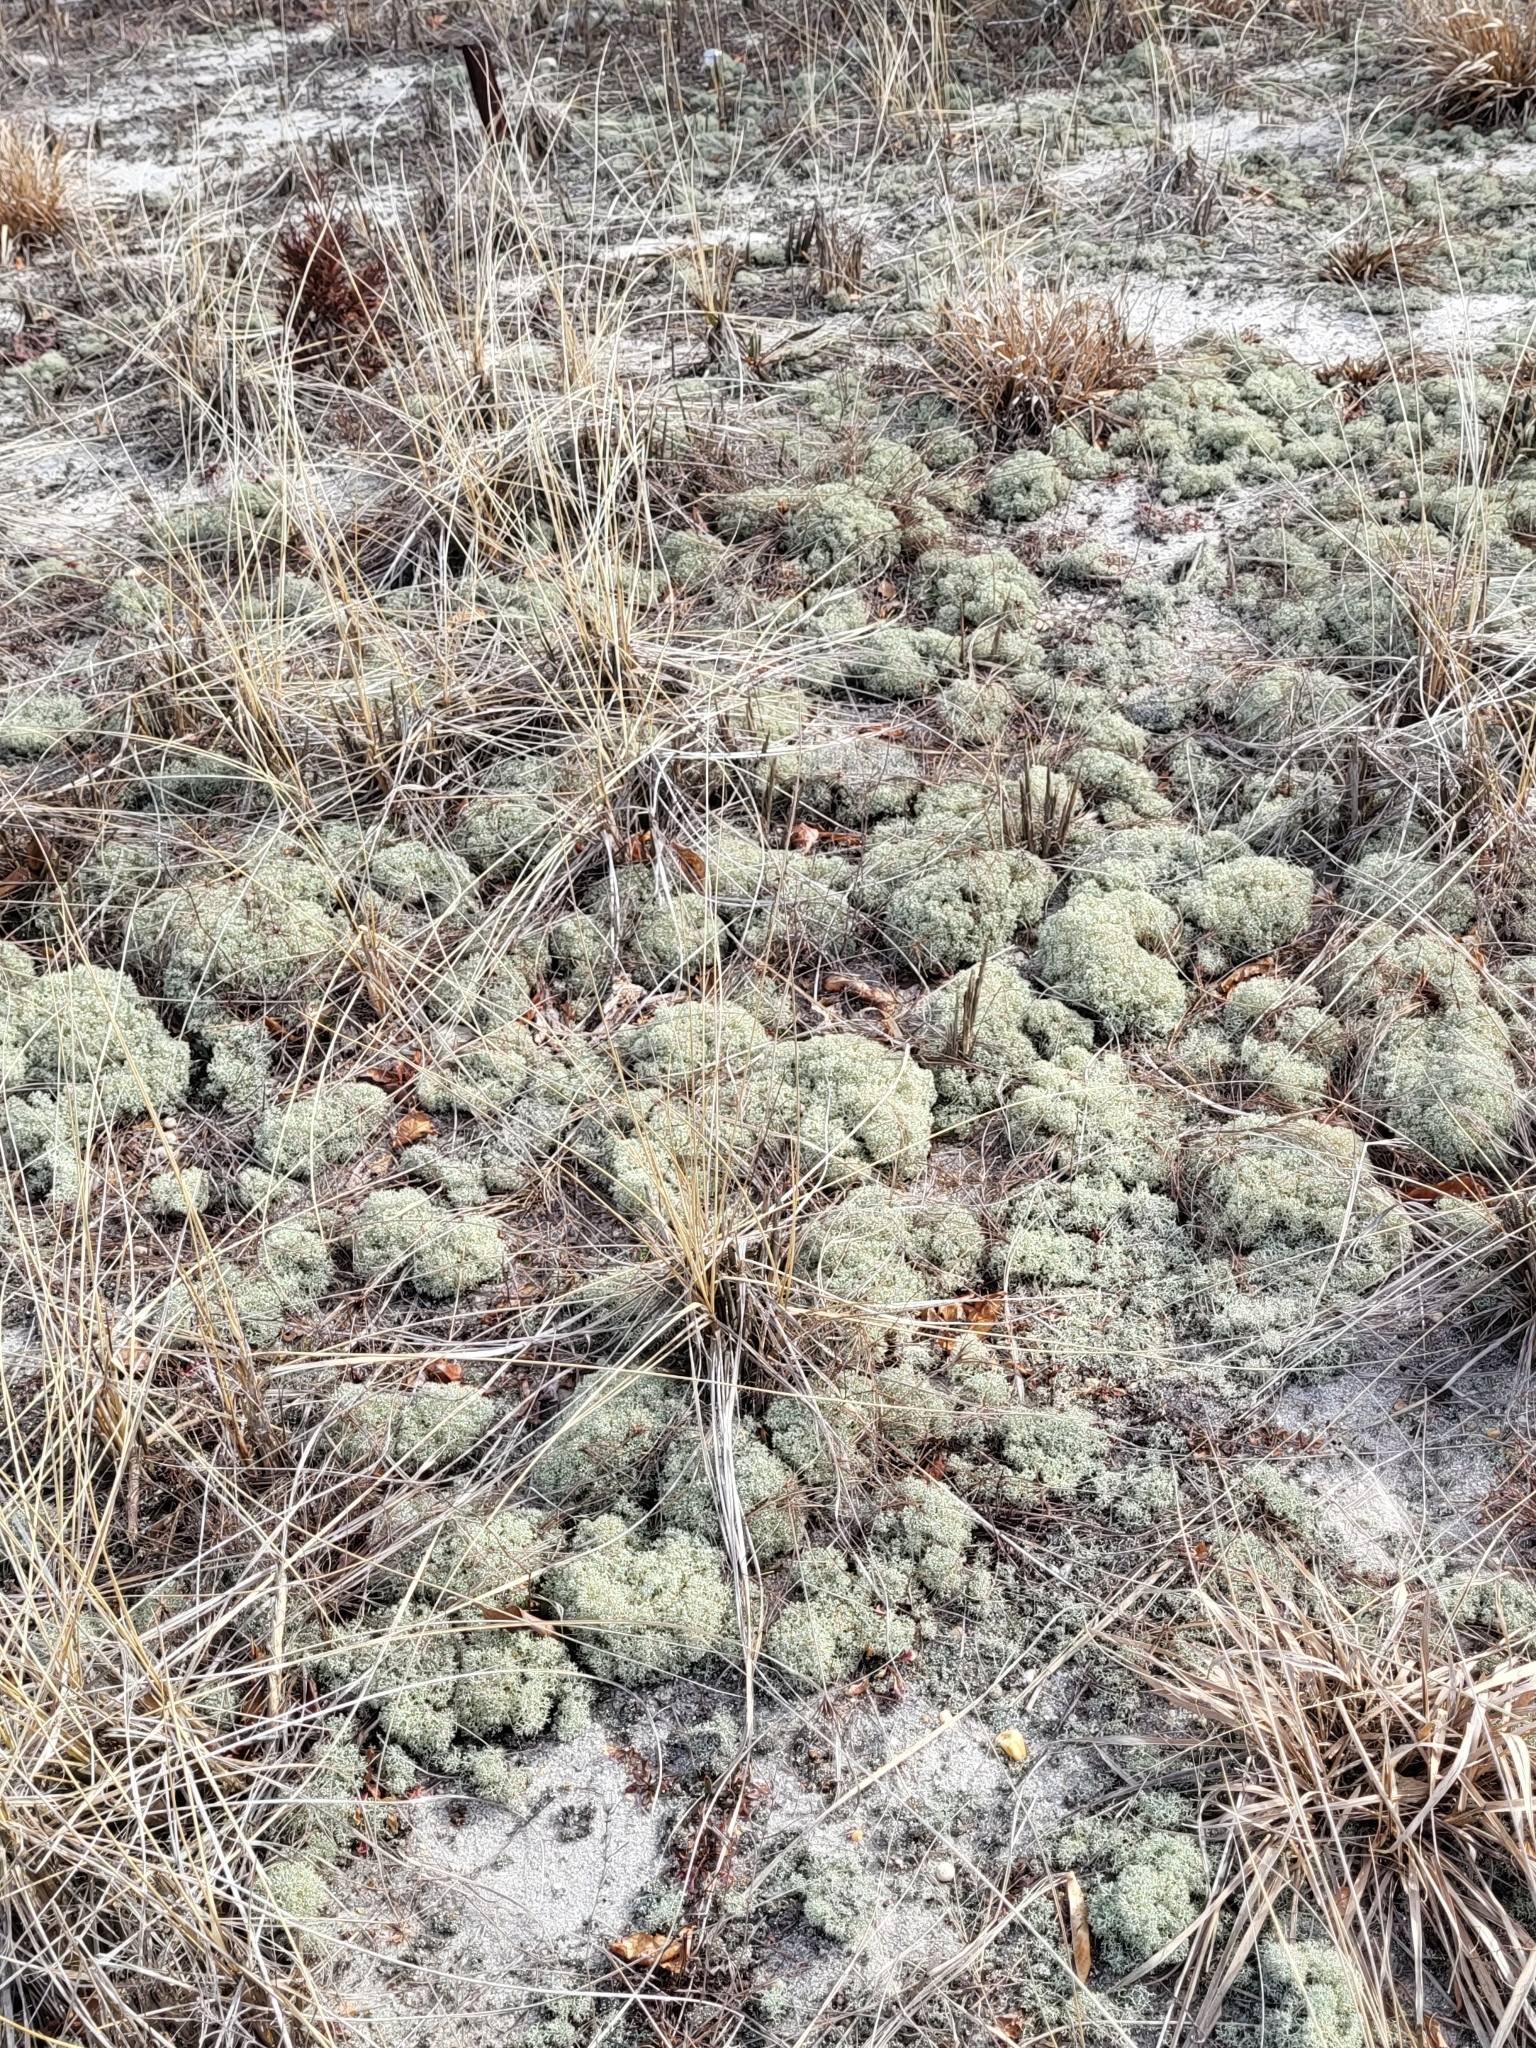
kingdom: Fungi
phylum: Ascomycota
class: Lecanoromycetes
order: Lecanorales
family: Cladoniaceae
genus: Cladonia
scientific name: Cladonia subtenuis
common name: Dixie reindeer lichen
